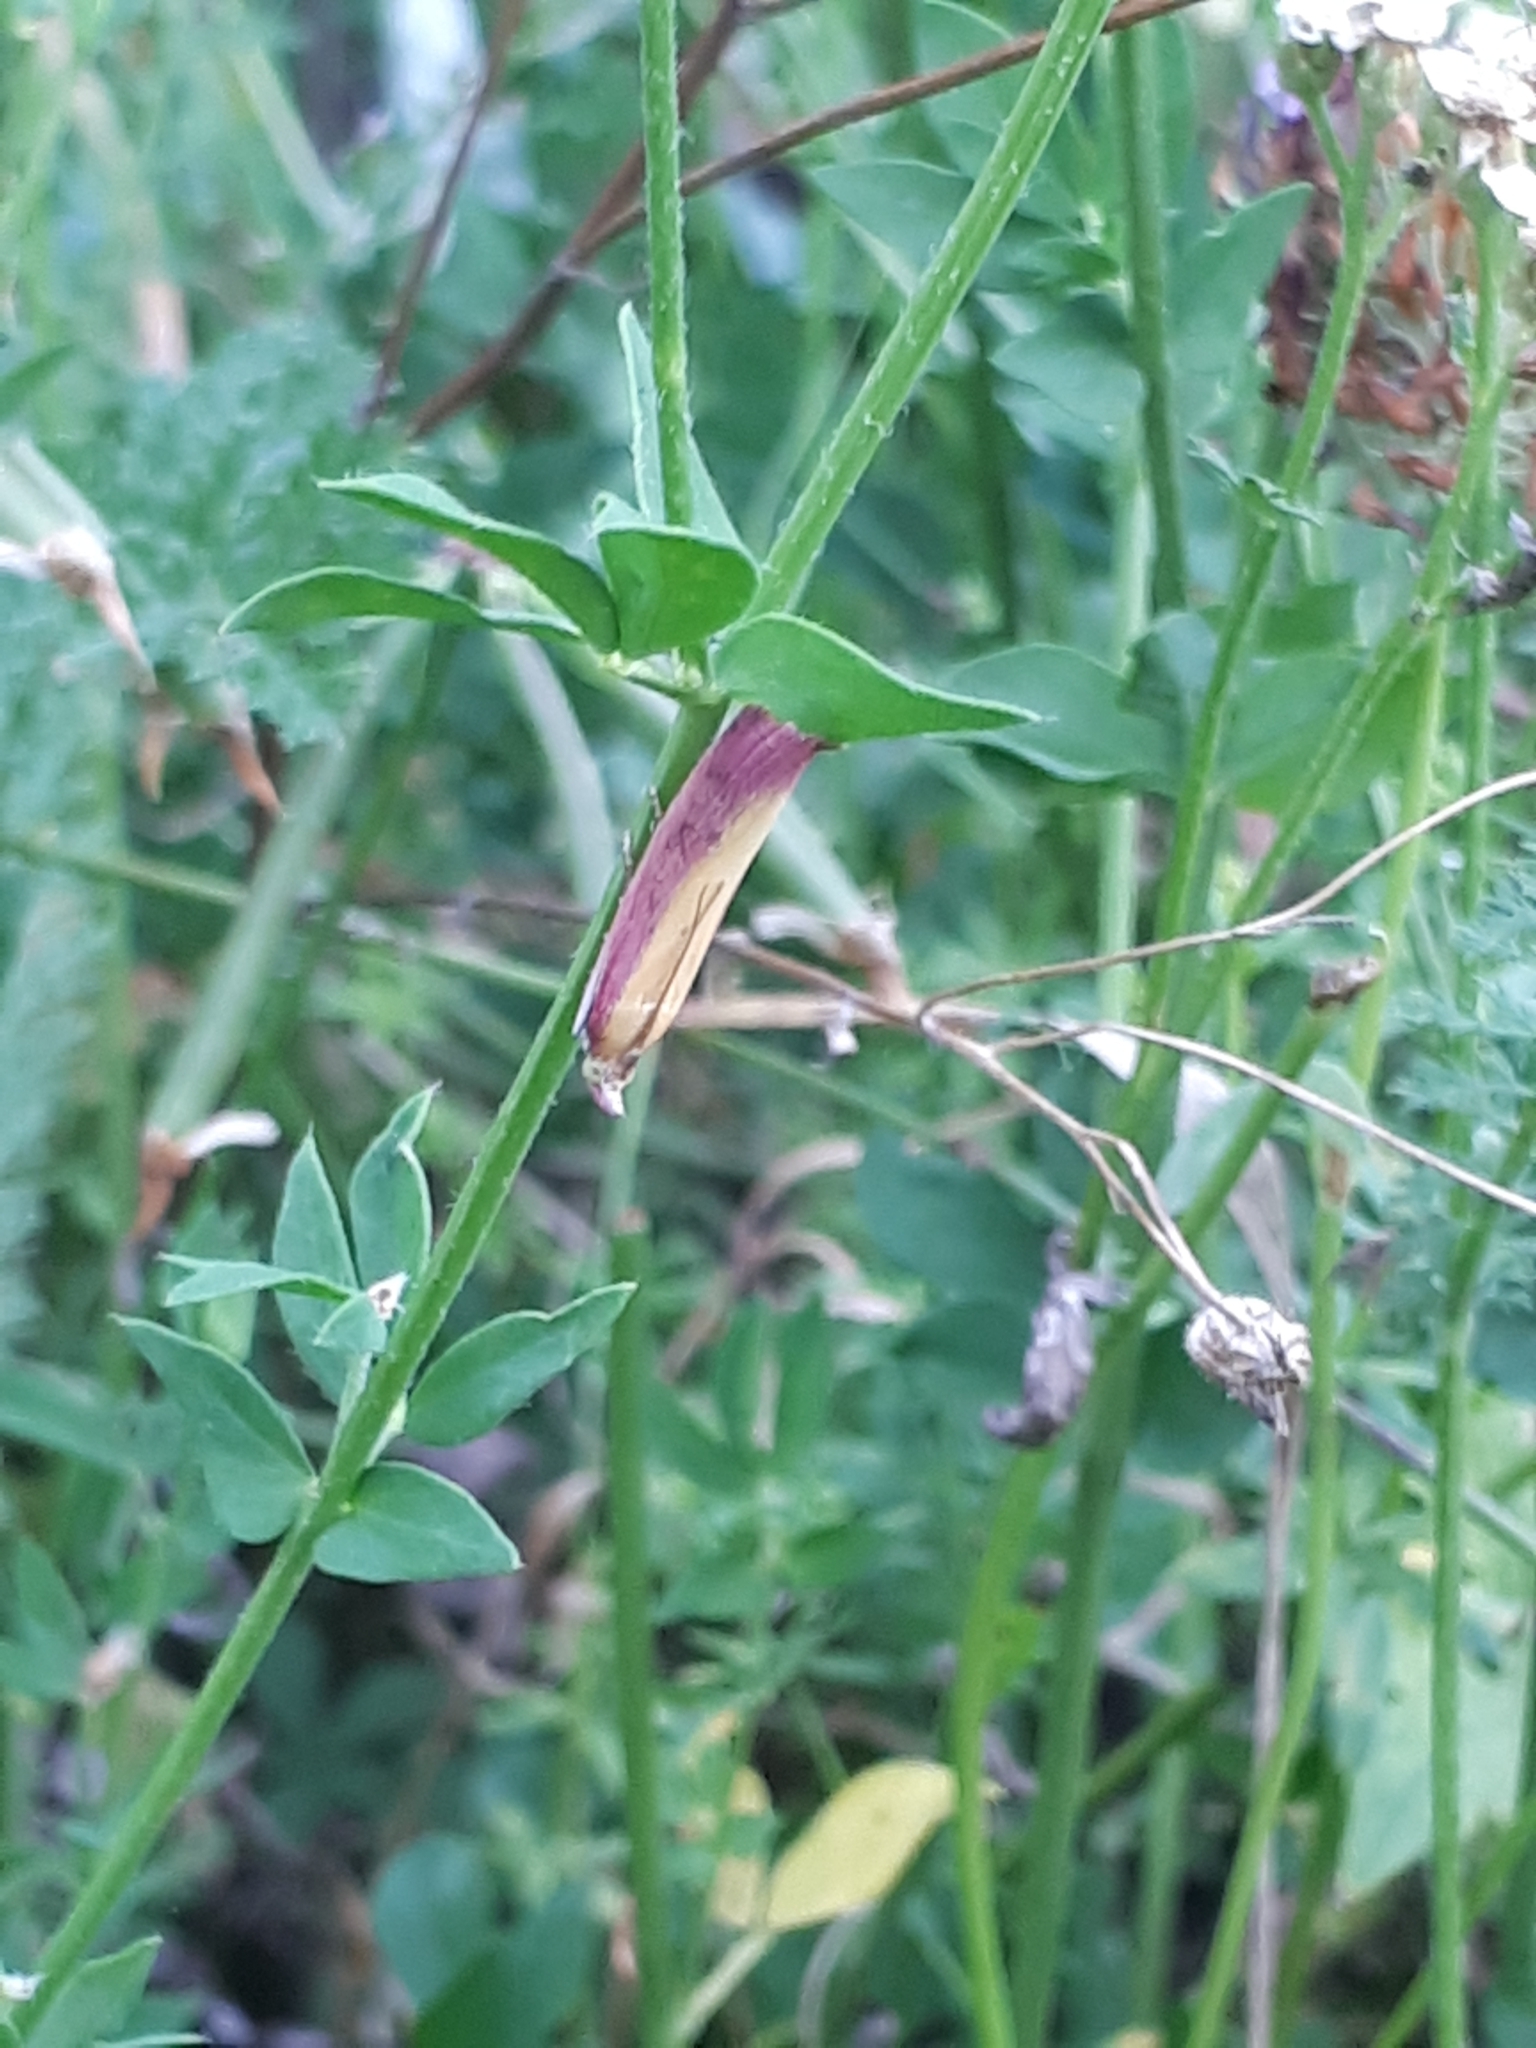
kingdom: Animalia
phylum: Arthropoda
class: Insecta
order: Lepidoptera
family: Pyralidae
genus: Oncocera
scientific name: Oncocera semirubella
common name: Rosy-striped knot-horn
